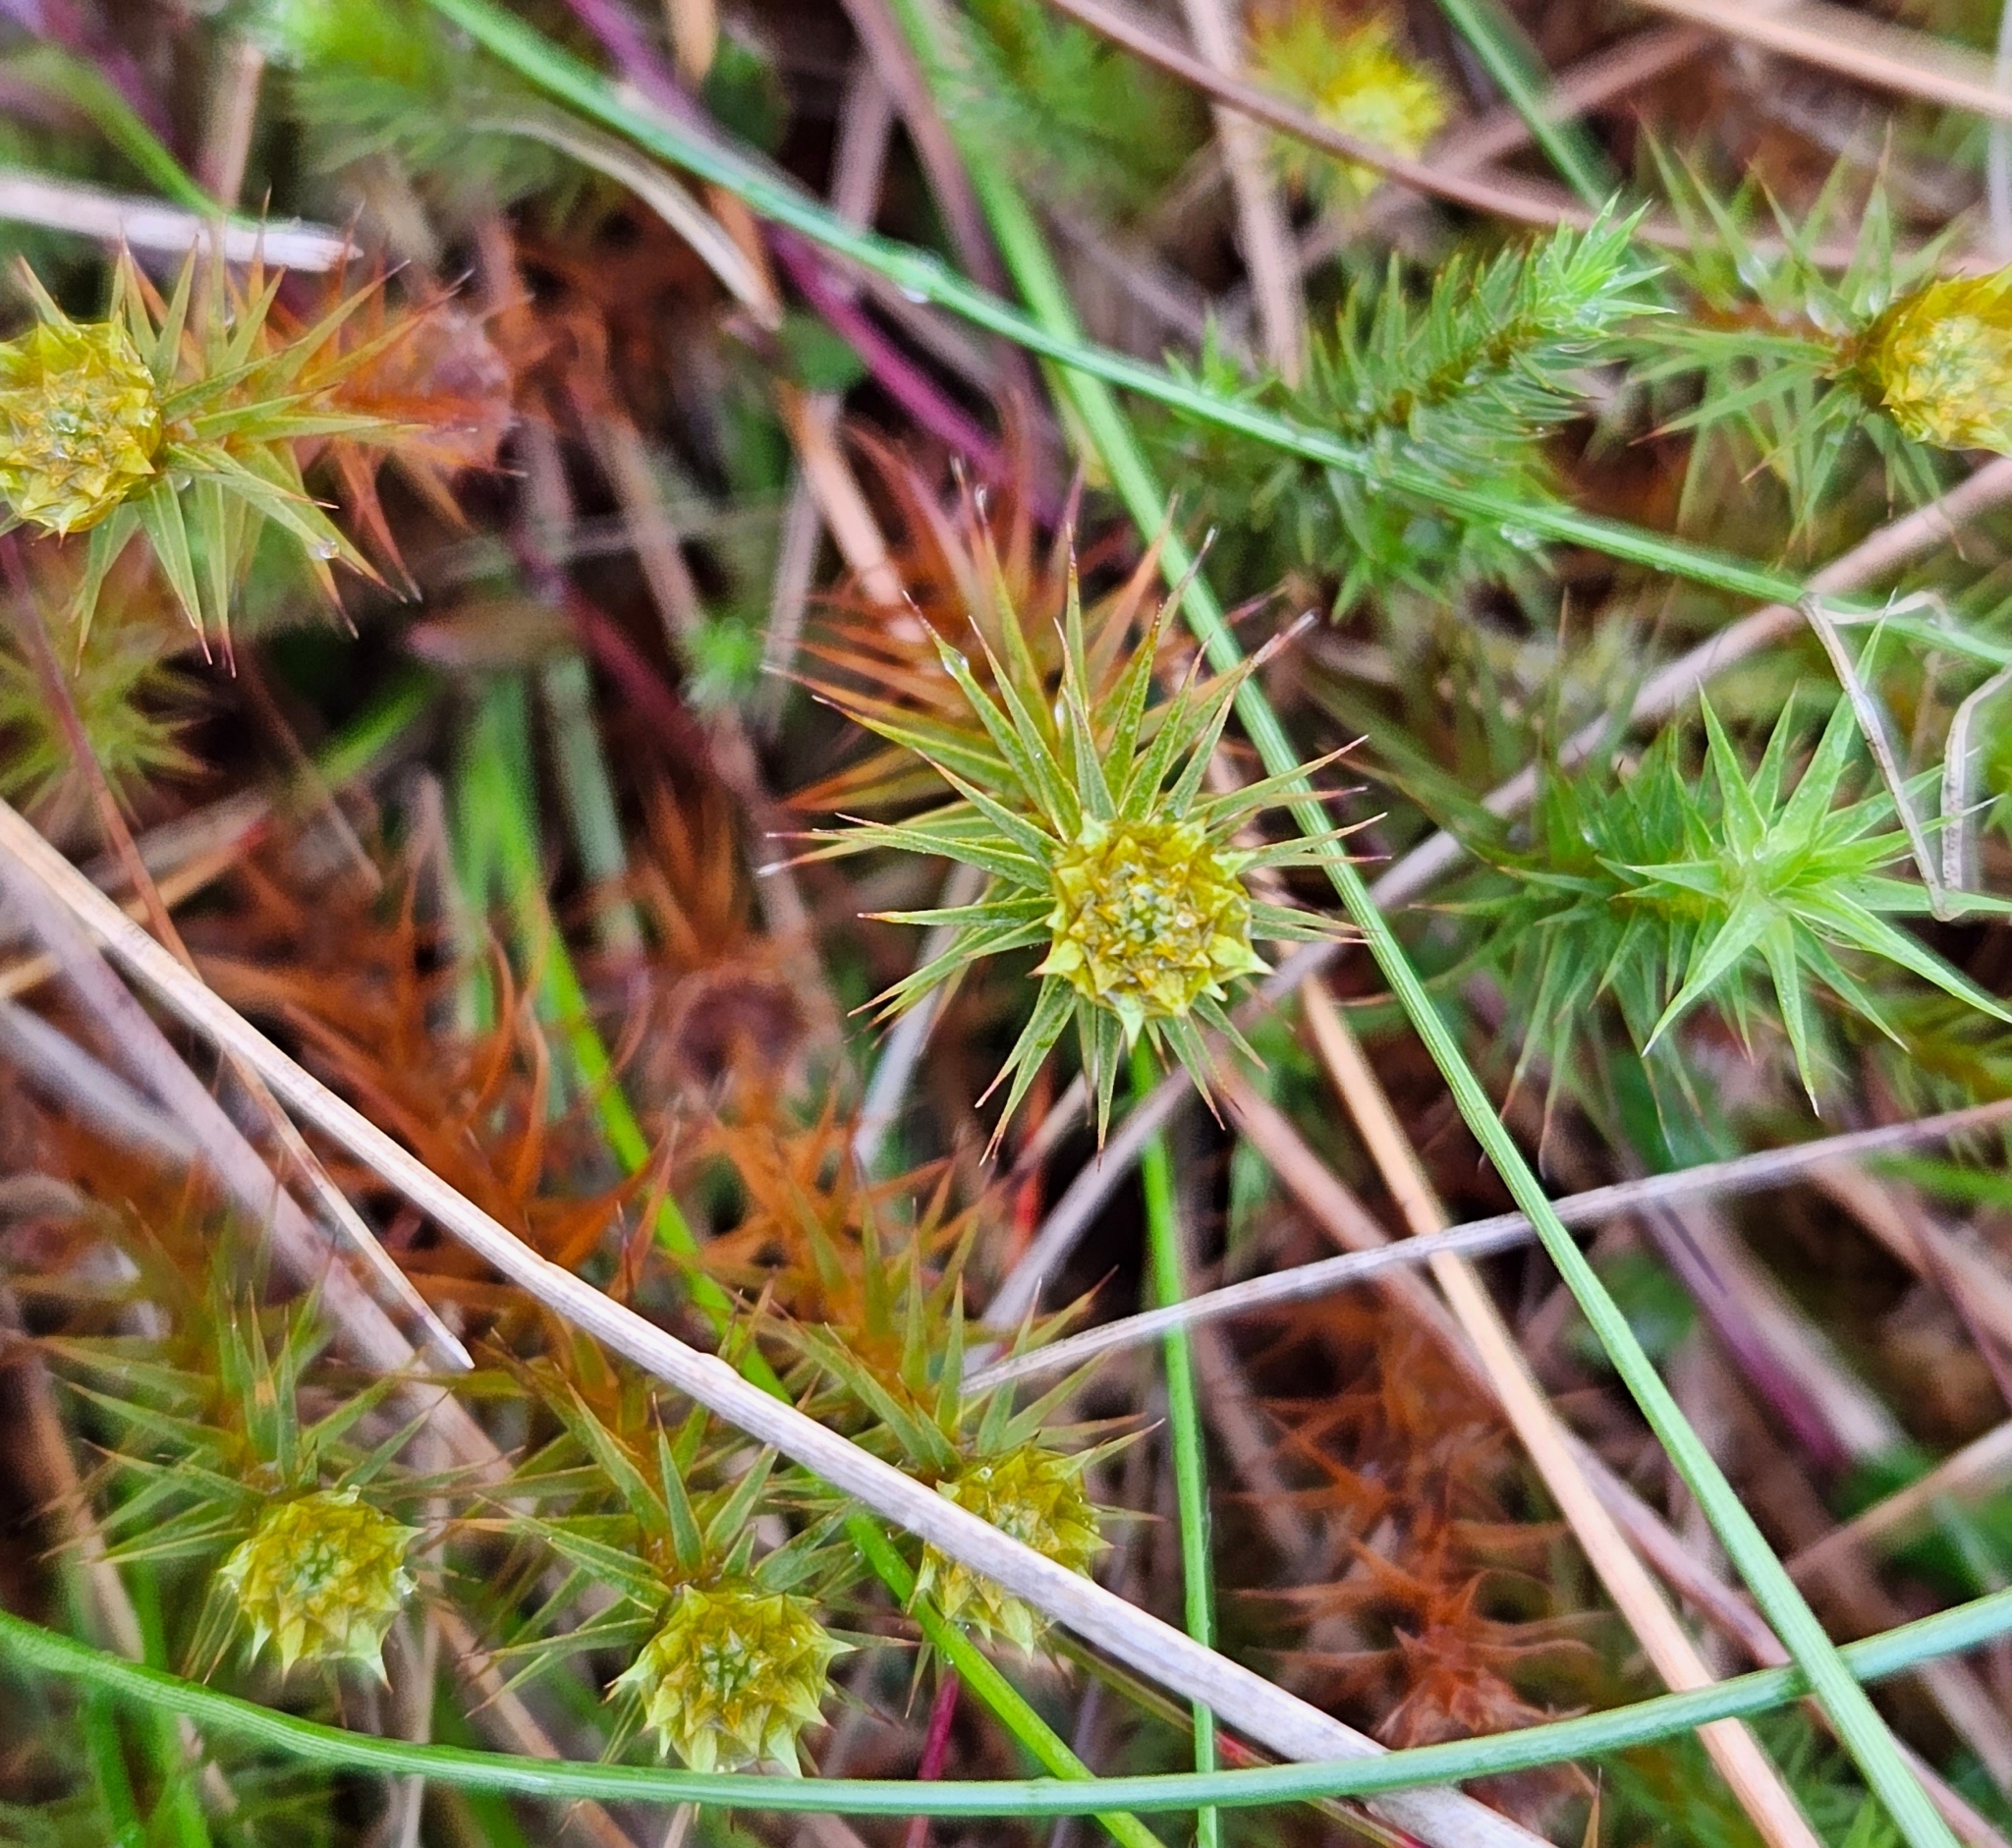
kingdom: Plantae
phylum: Bryophyta
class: Polytrichopsida
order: Polytrichales
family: Polytrichaceae
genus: Polytrichum
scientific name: Polytrichum commune
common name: Common haircap
